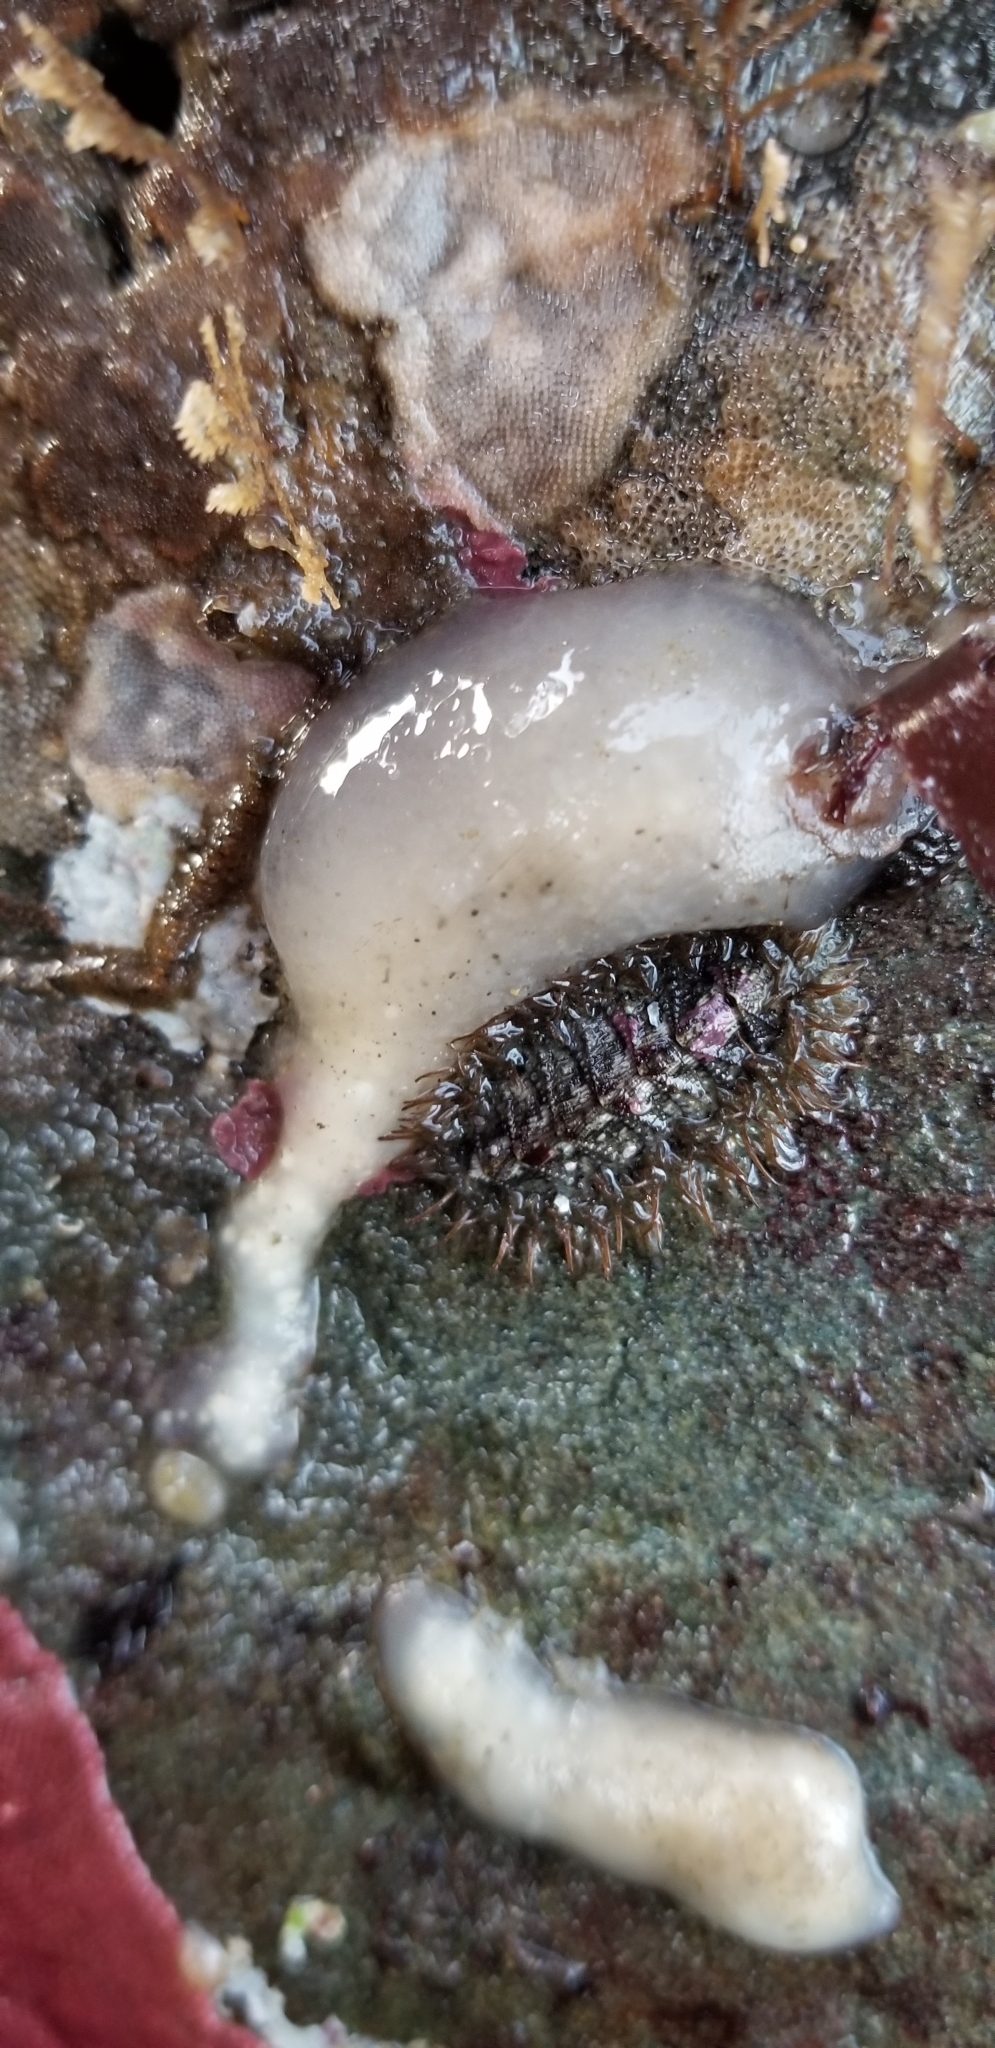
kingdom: Animalia
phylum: Mollusca
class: Polyplacophora
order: Chitonida
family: Mopaliidae
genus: Mopalia
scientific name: Mopalia muscosa
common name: Mossy chiton
